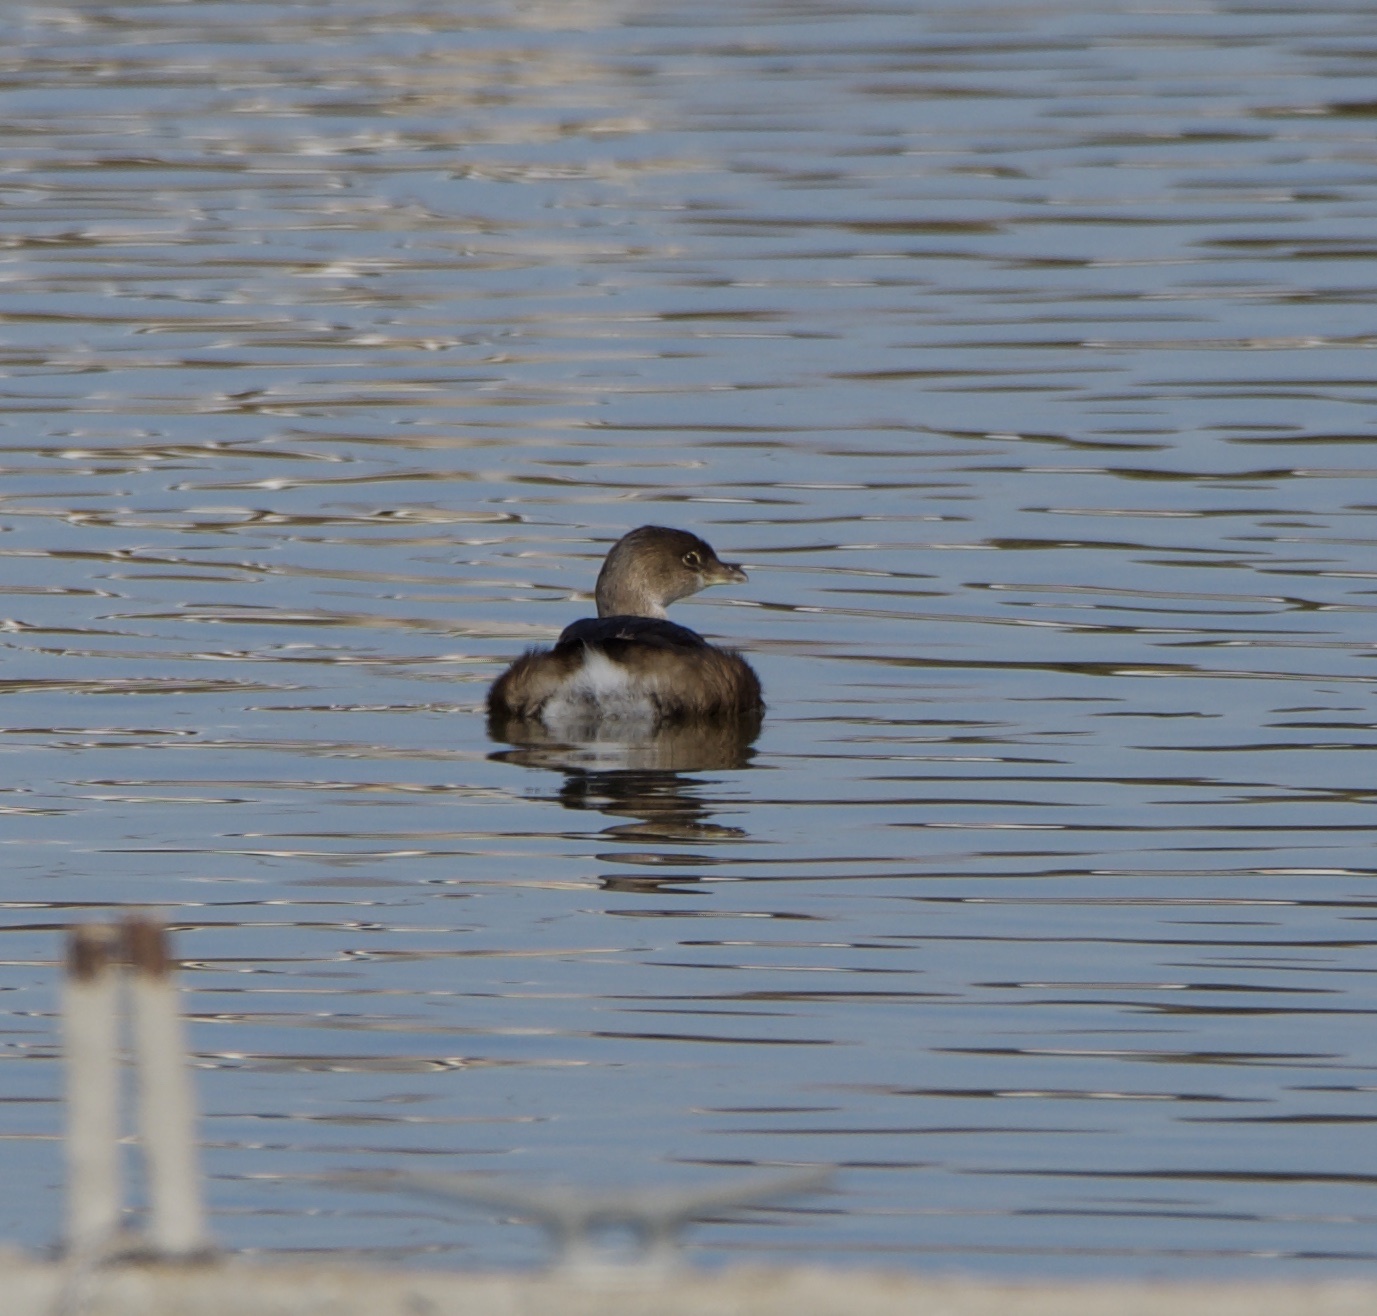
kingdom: Animalia
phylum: Chordata
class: Aves
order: Podicipediformes
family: Podicipedidae
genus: Podilymbus
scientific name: Podilymbus podiceps
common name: Pied-billed grebe
